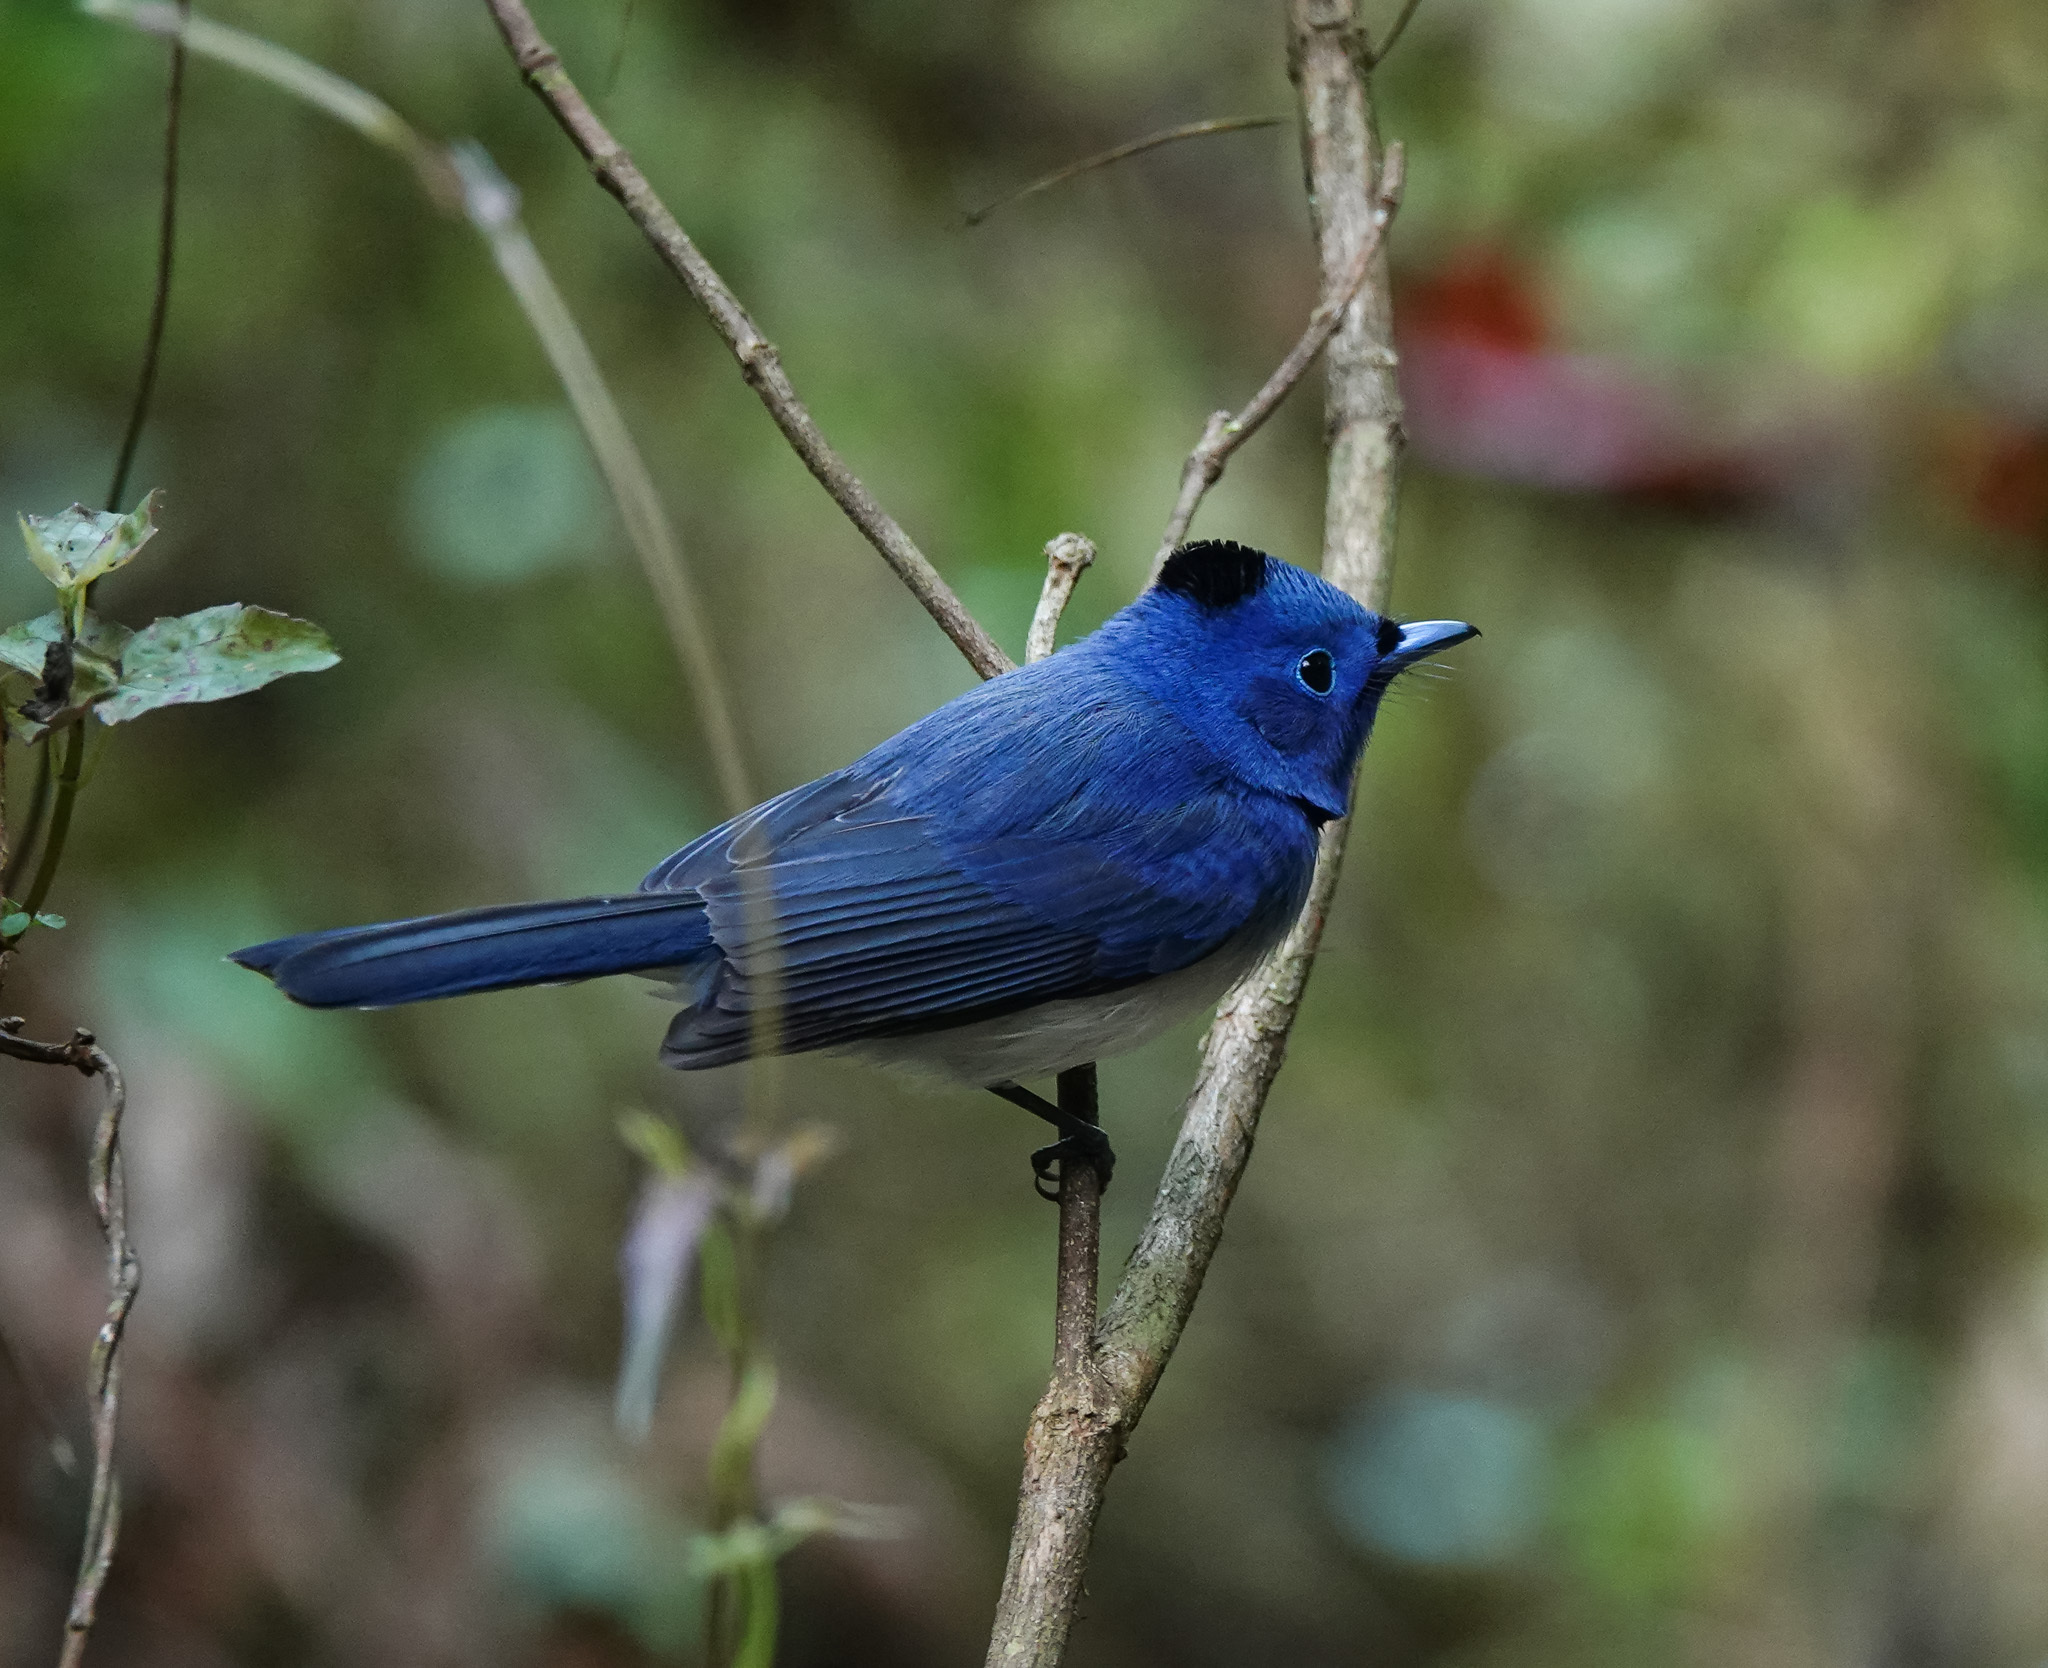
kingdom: Animalia
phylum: Chordata
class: Aves
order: Passeriformes
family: Monarchidae
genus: Hypothymis
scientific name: Hypothymis azurea
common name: Black-naped monarch
